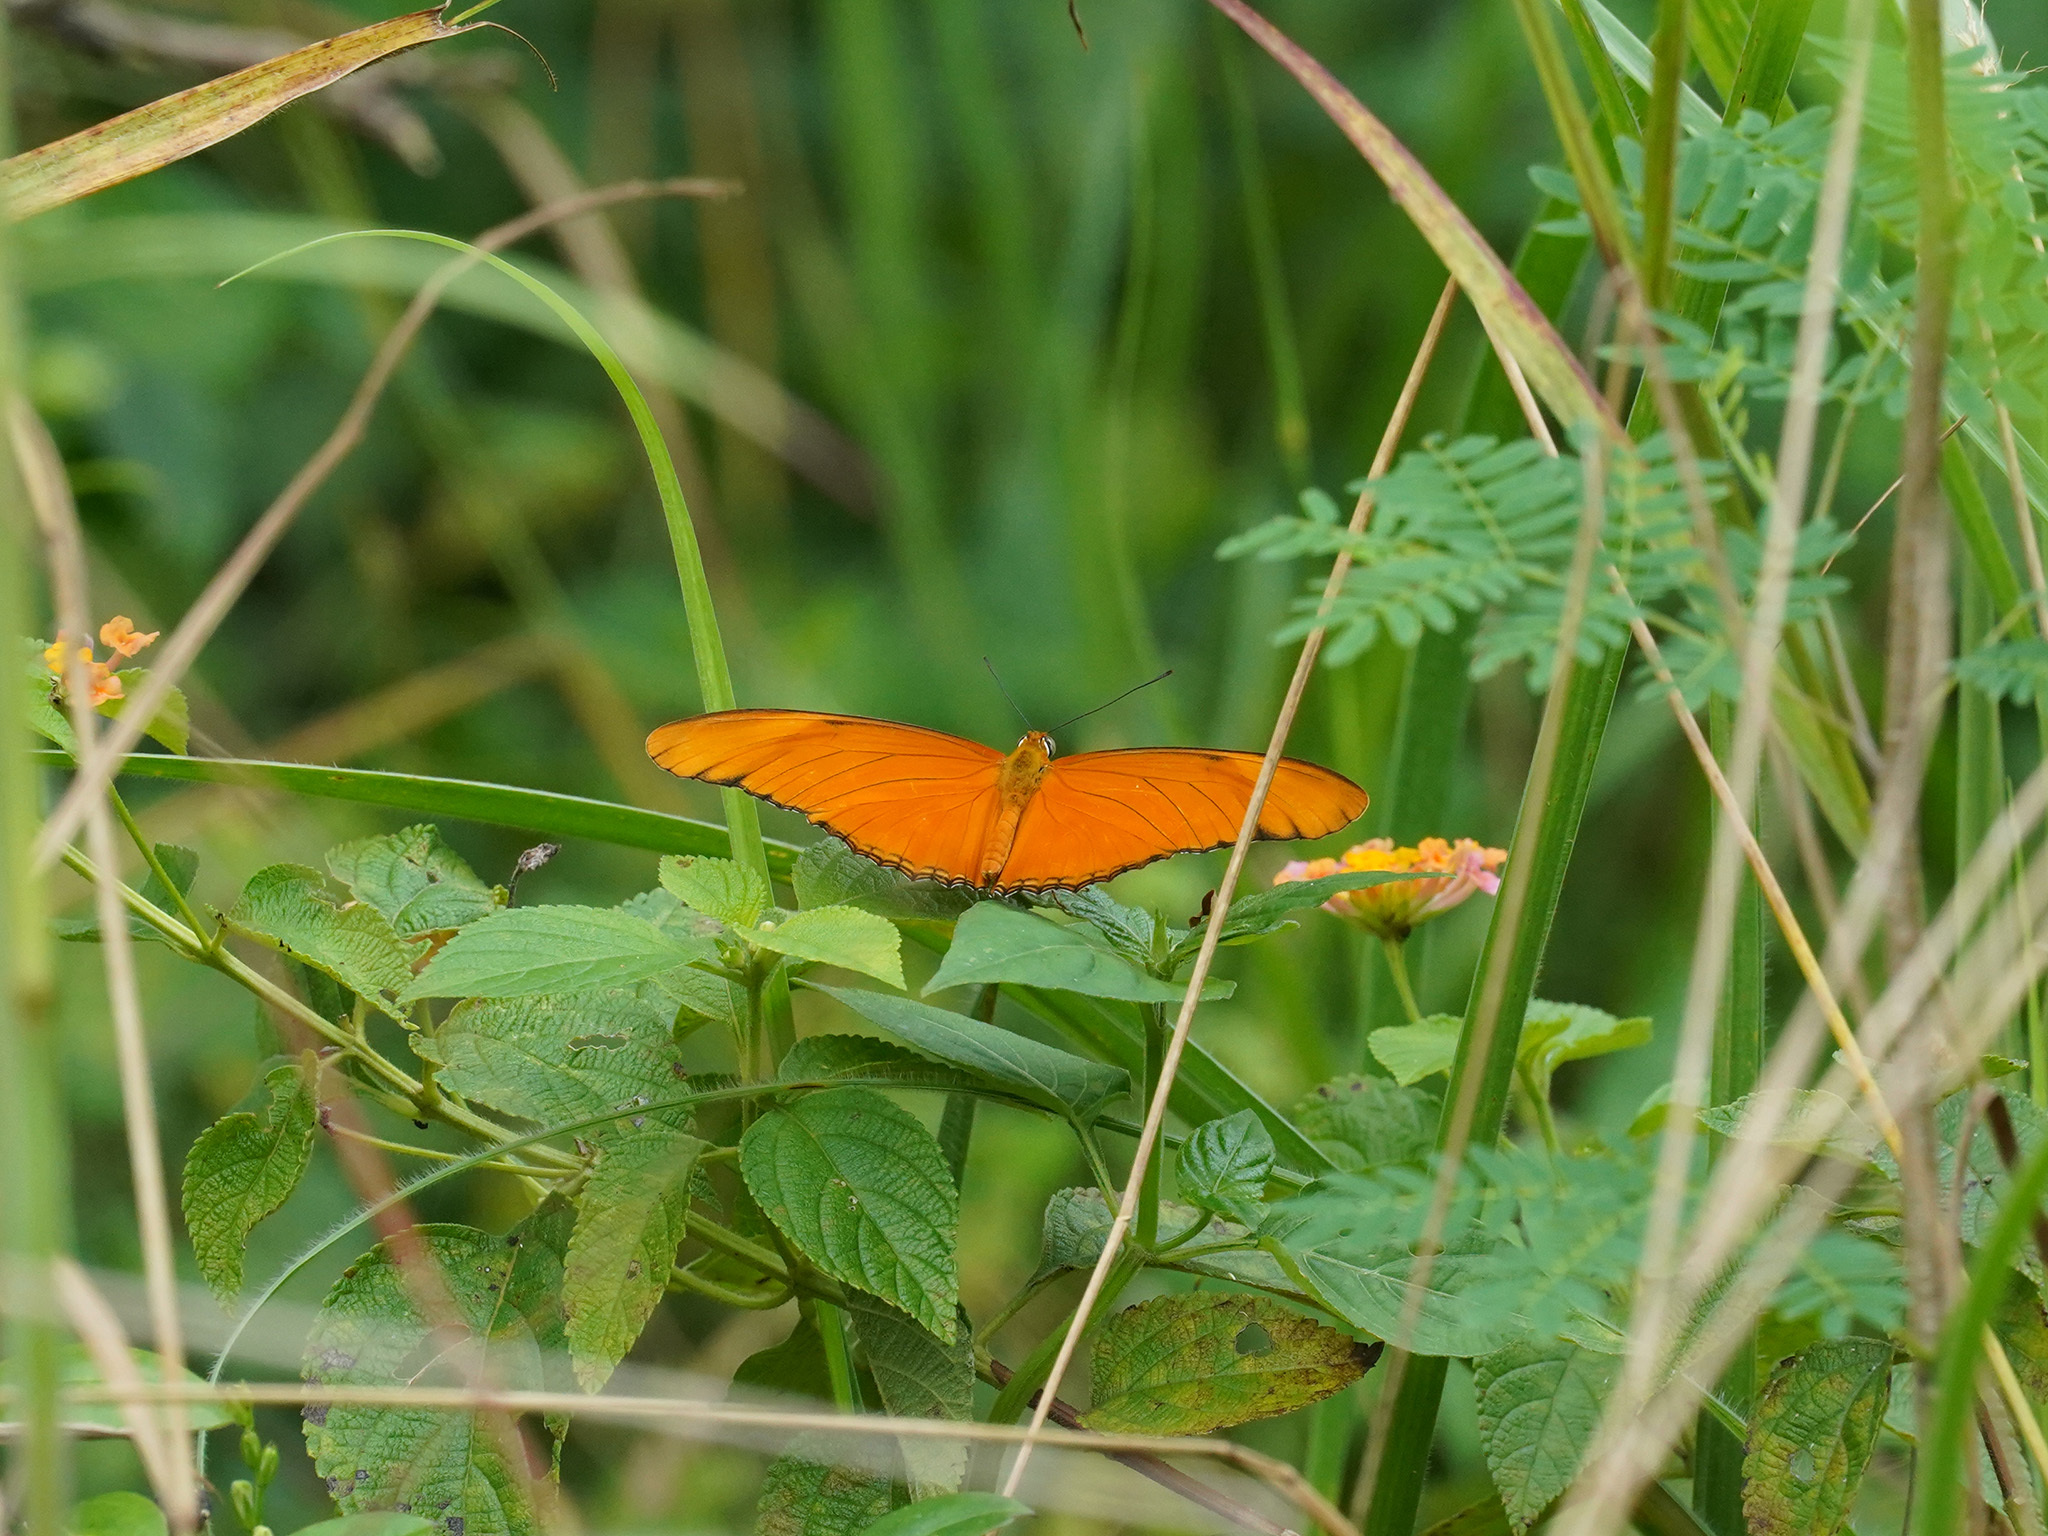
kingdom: Animalia
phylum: Arthropoda
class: Insecta
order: Lepidoptera
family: Nymphalidae
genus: Dryas
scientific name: Dryas iulia
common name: Flambeau
